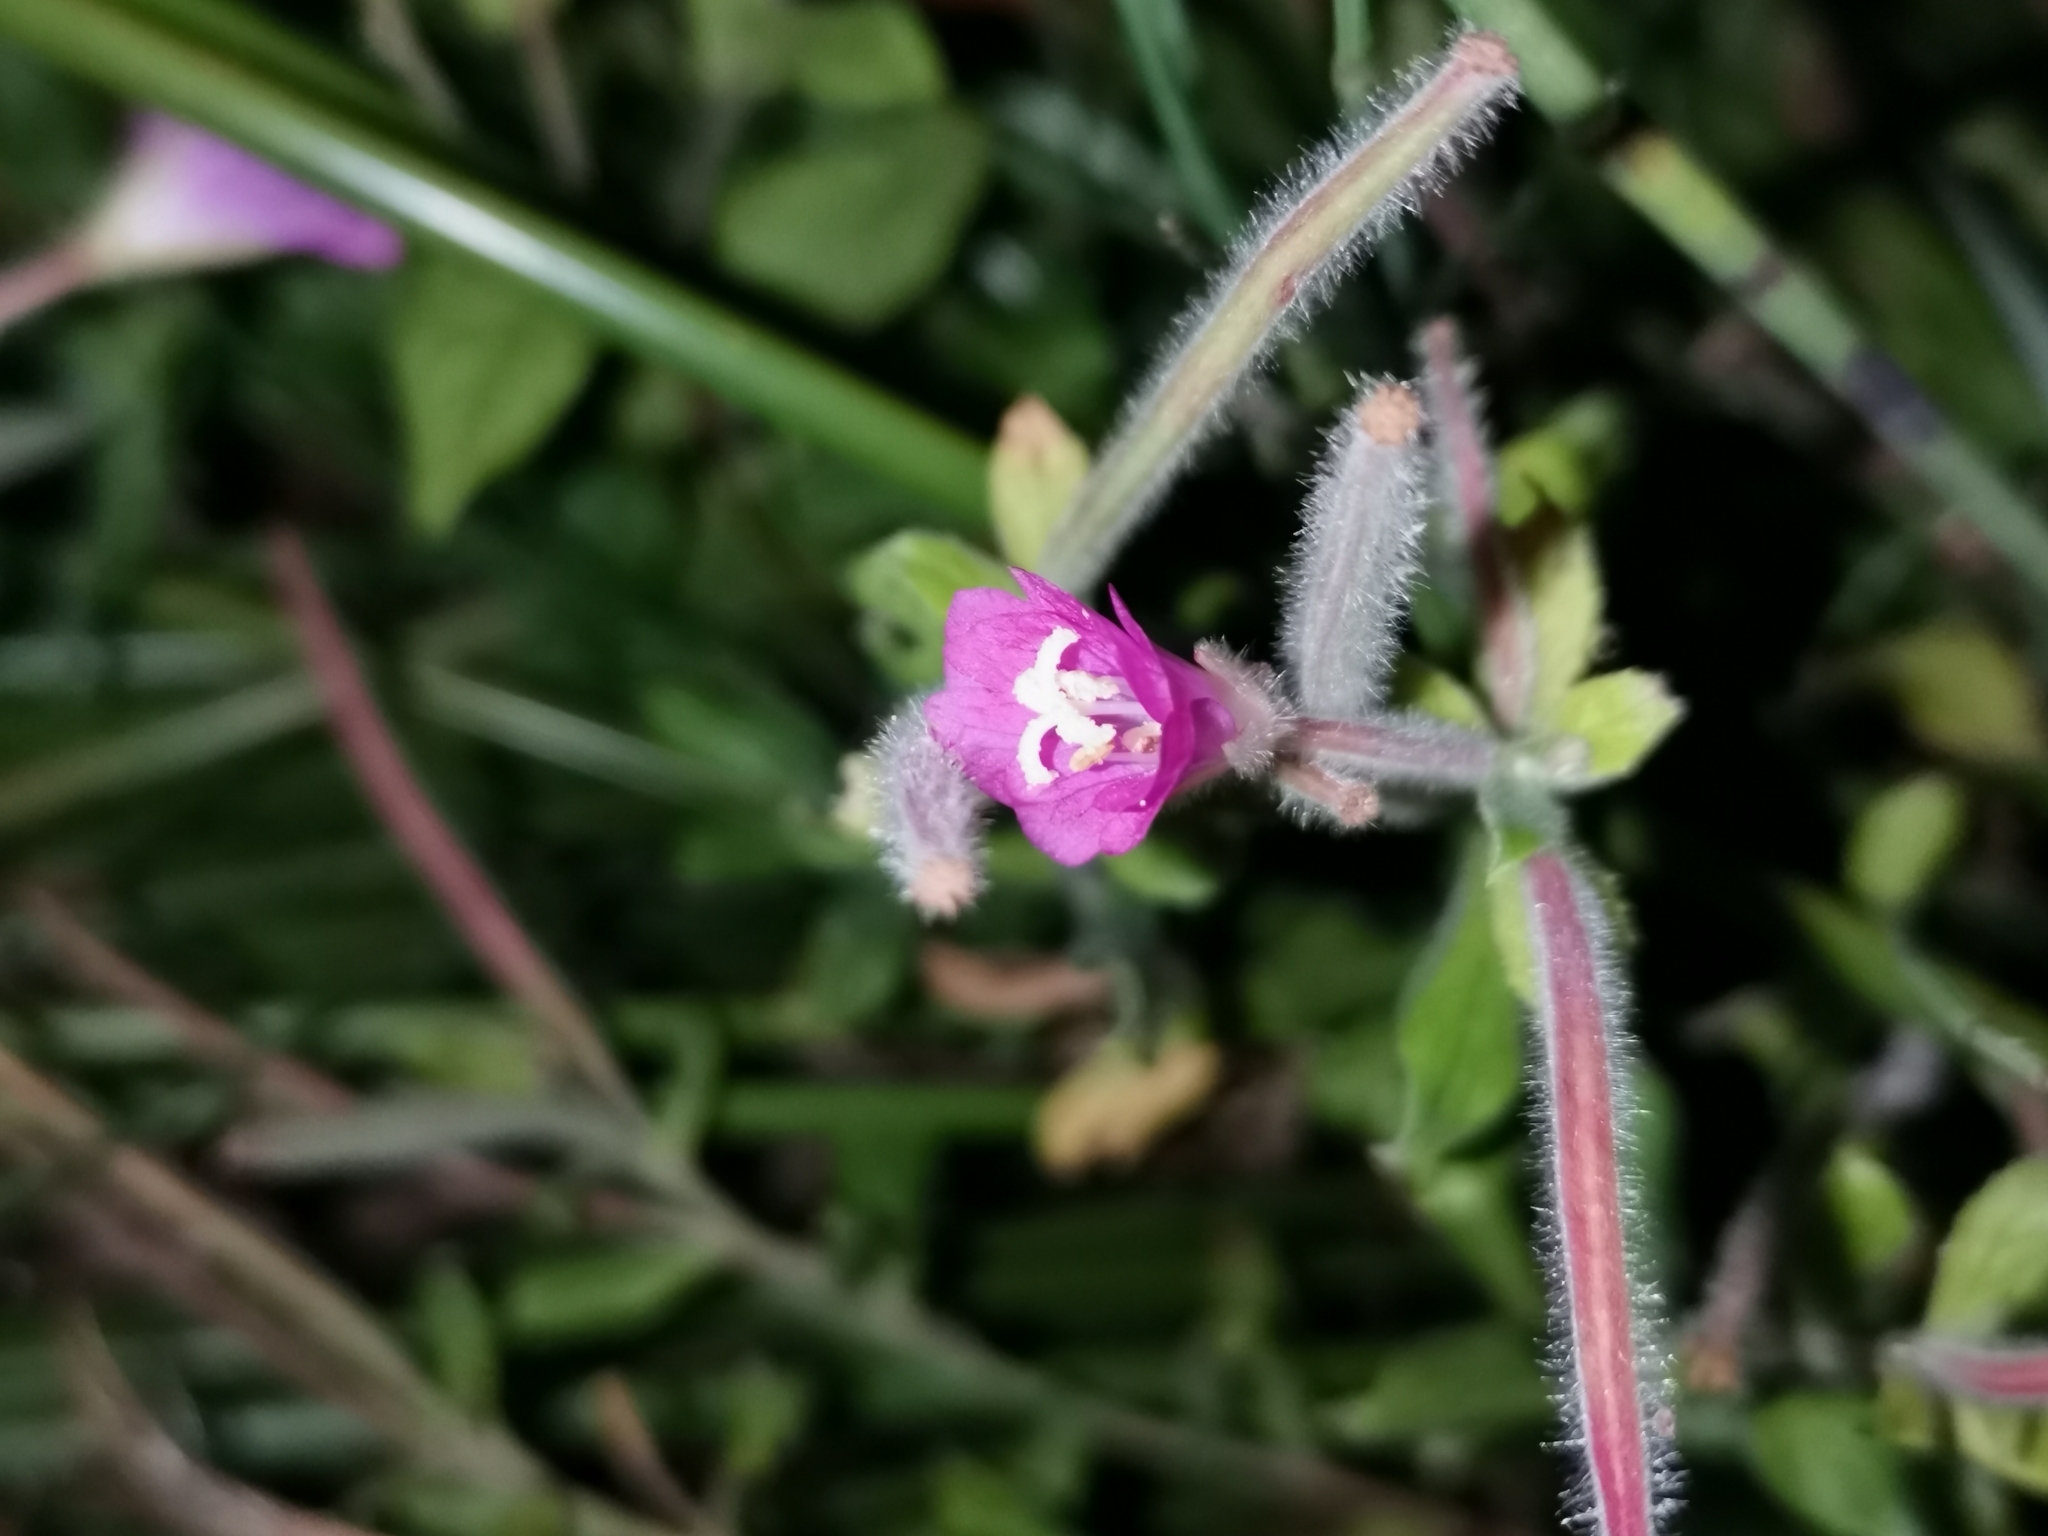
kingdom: Plantae
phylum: Tracheophyta
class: Magnoliopsida
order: Myrtales
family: Onagraceae
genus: Epilobium
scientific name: Epilobium hirsutum
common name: Great willowherb
